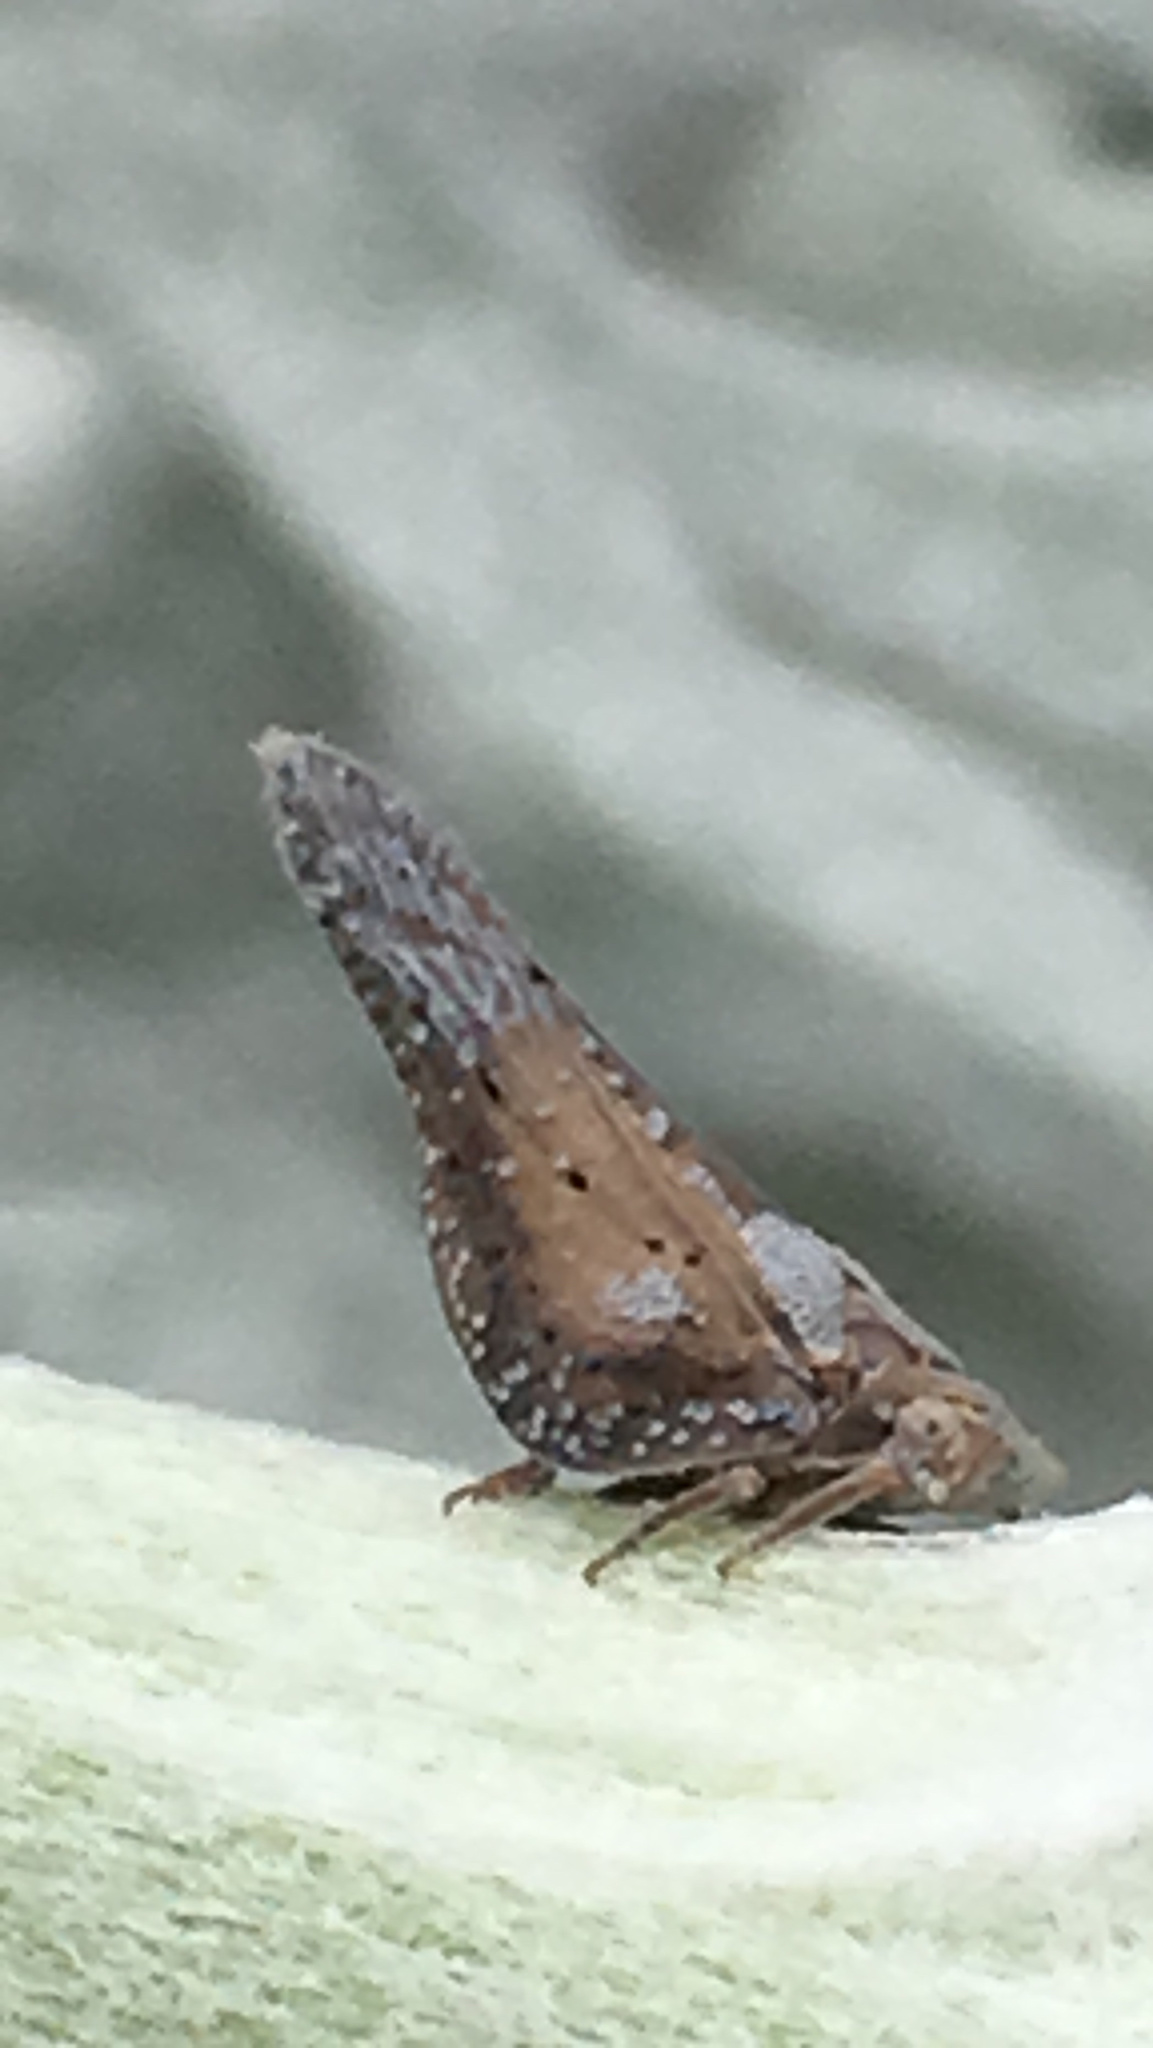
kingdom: Animalia
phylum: Arthropoda
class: Insecta
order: Hemiptera
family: Flatidae
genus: Cyarda
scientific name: Cyarda
